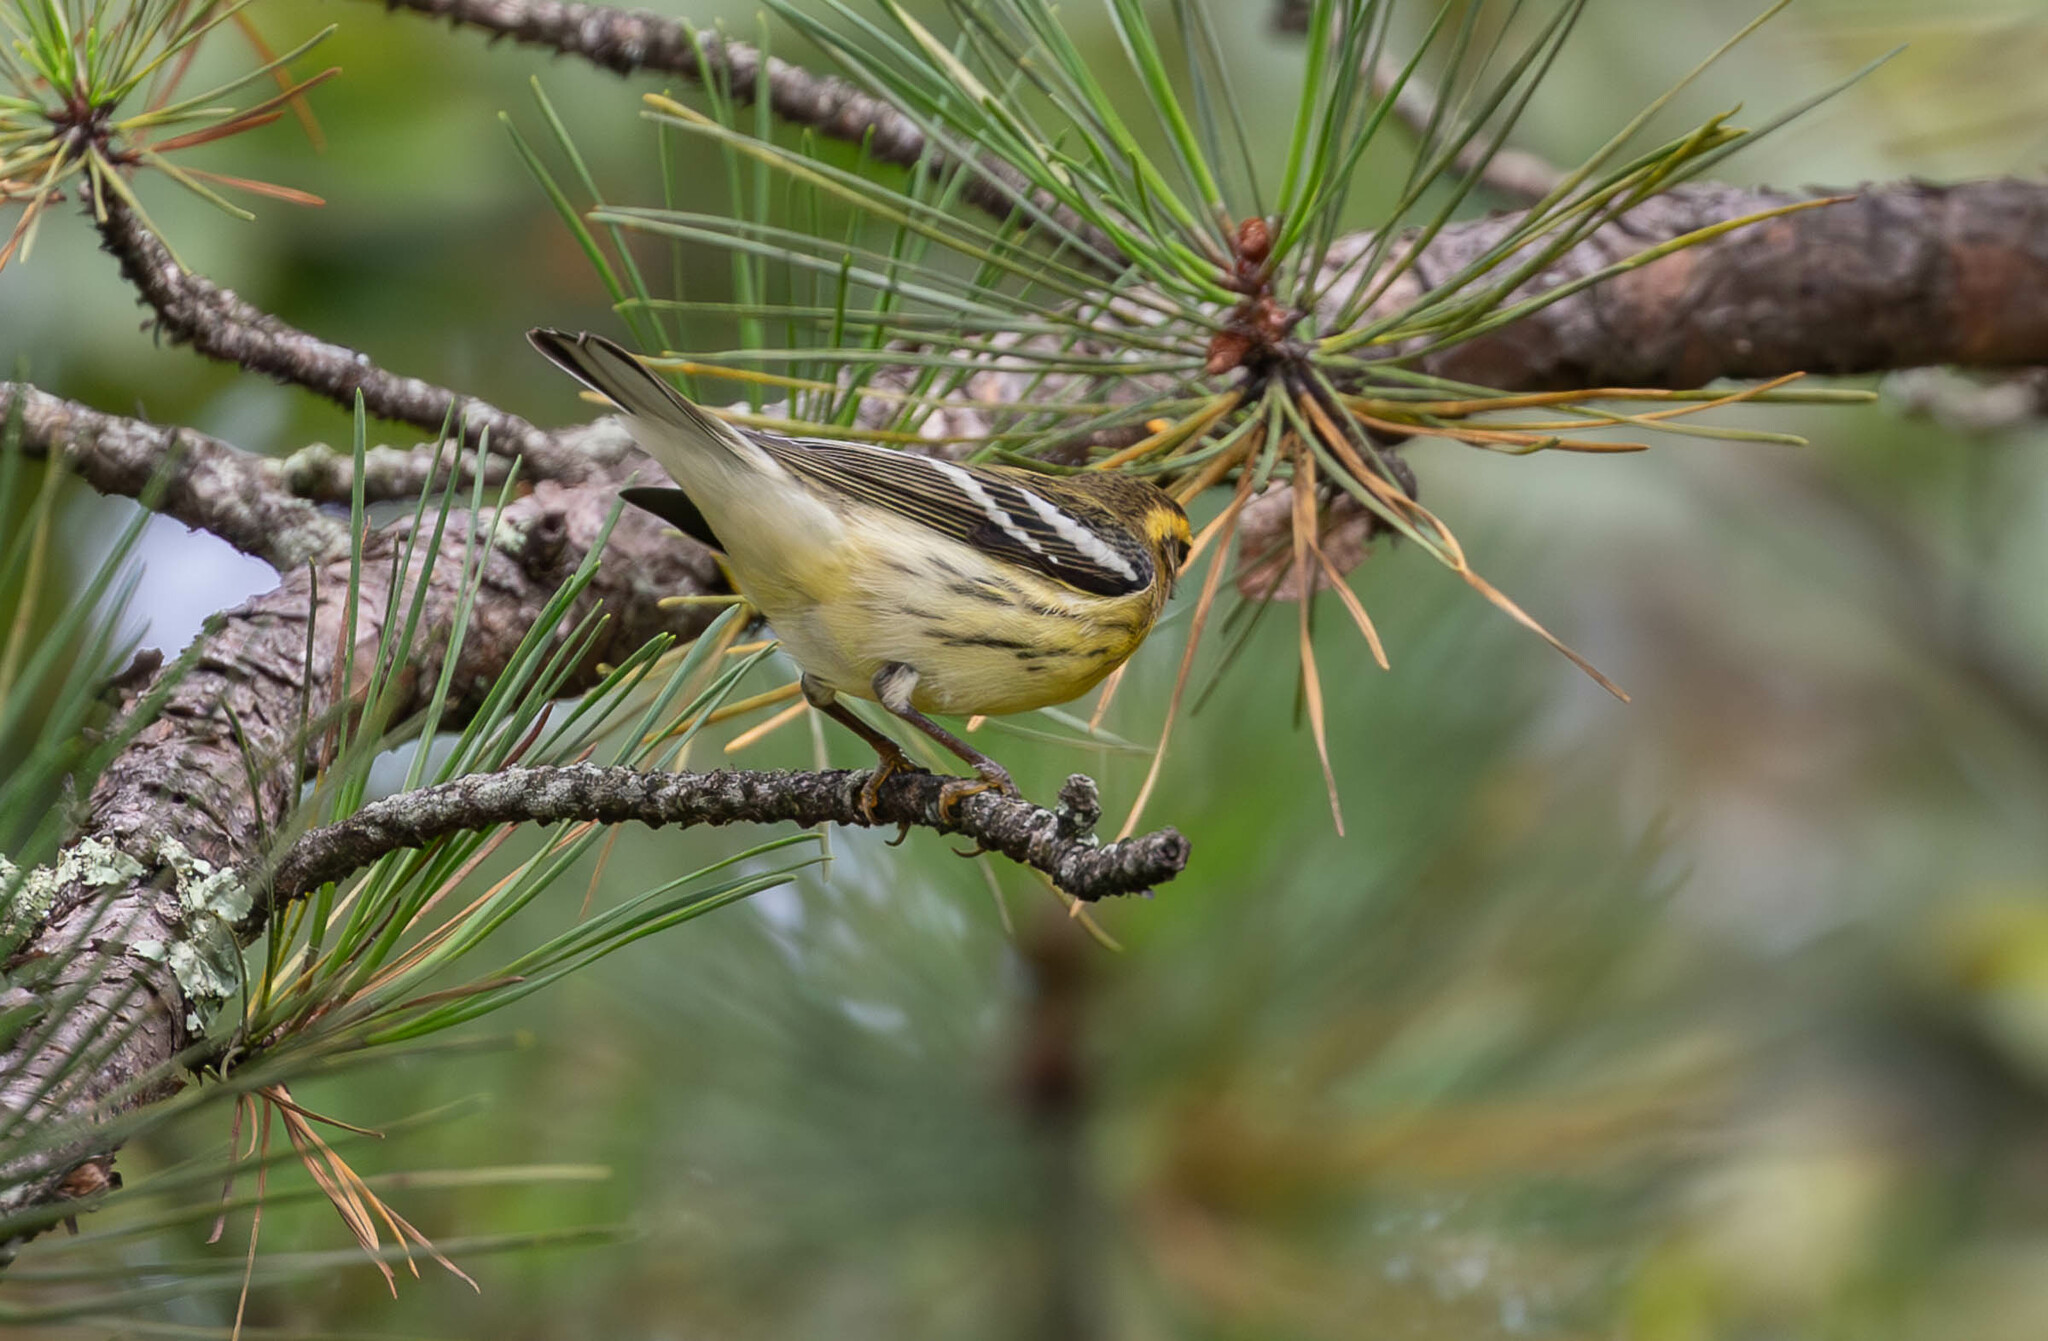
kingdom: Animalia
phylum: Chordata
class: Aves
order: Passeriformes
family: Parulidae
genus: Setophaga
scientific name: Setophaga fusca
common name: Blackburnian warbler
